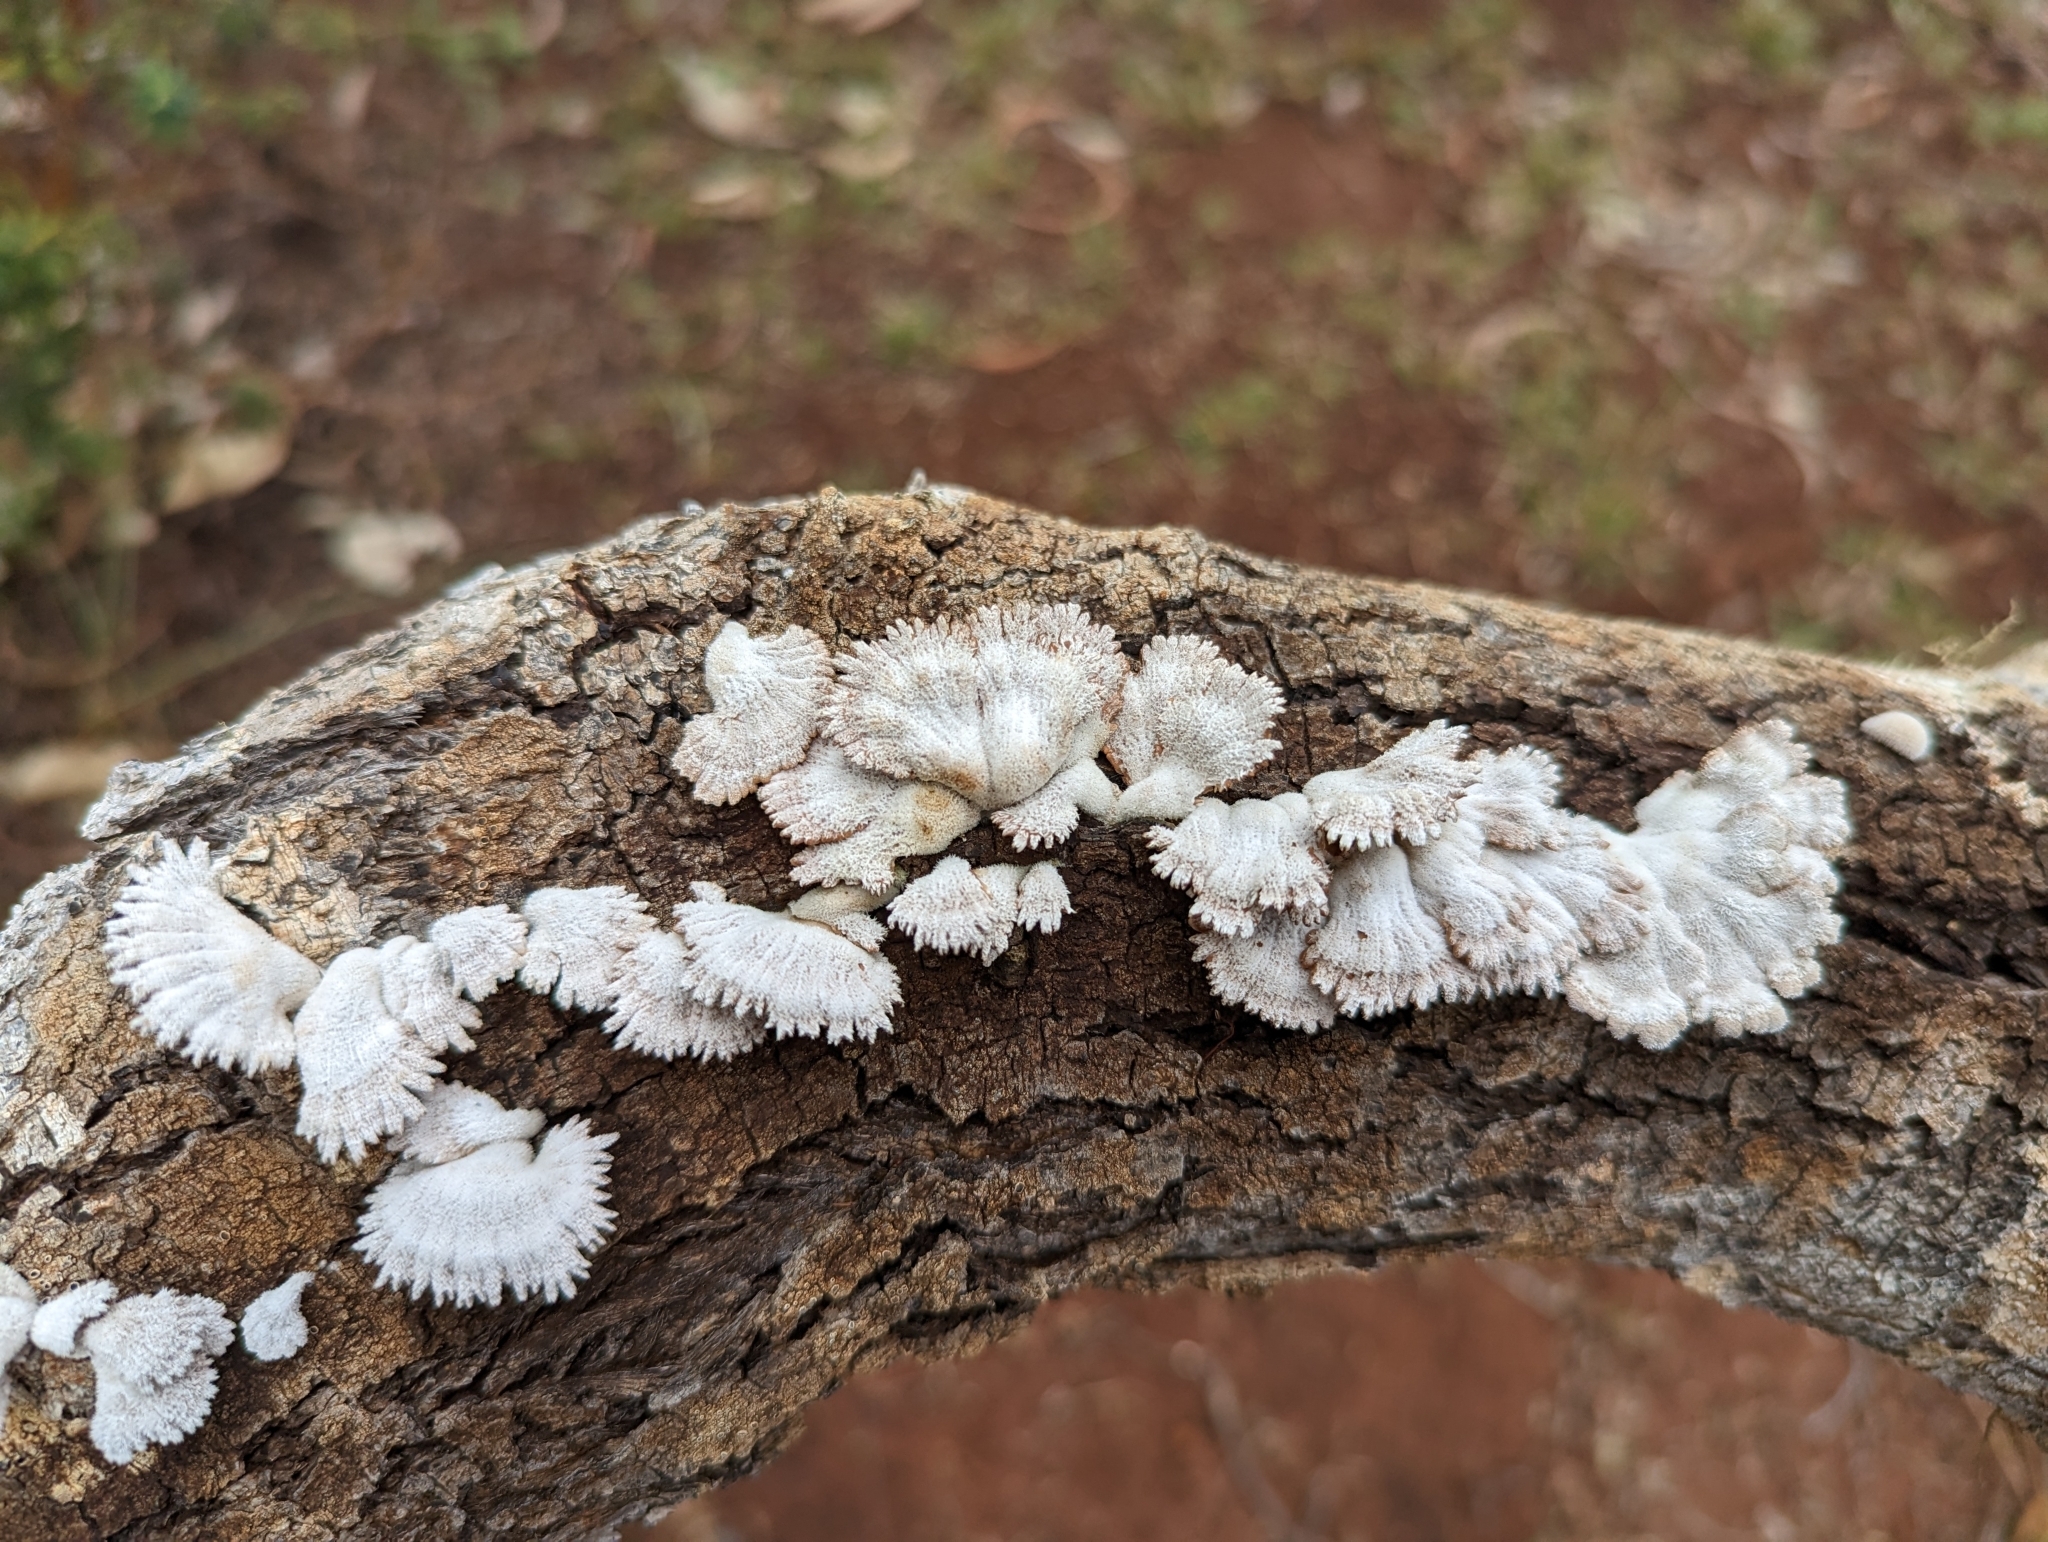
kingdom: Fungi
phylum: Basidiomycota
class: Agaricomycetes
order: Agaricales
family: Schizophyllaceae
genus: Schizophyllum
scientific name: Schizophyllum commune
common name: Common porecrust
